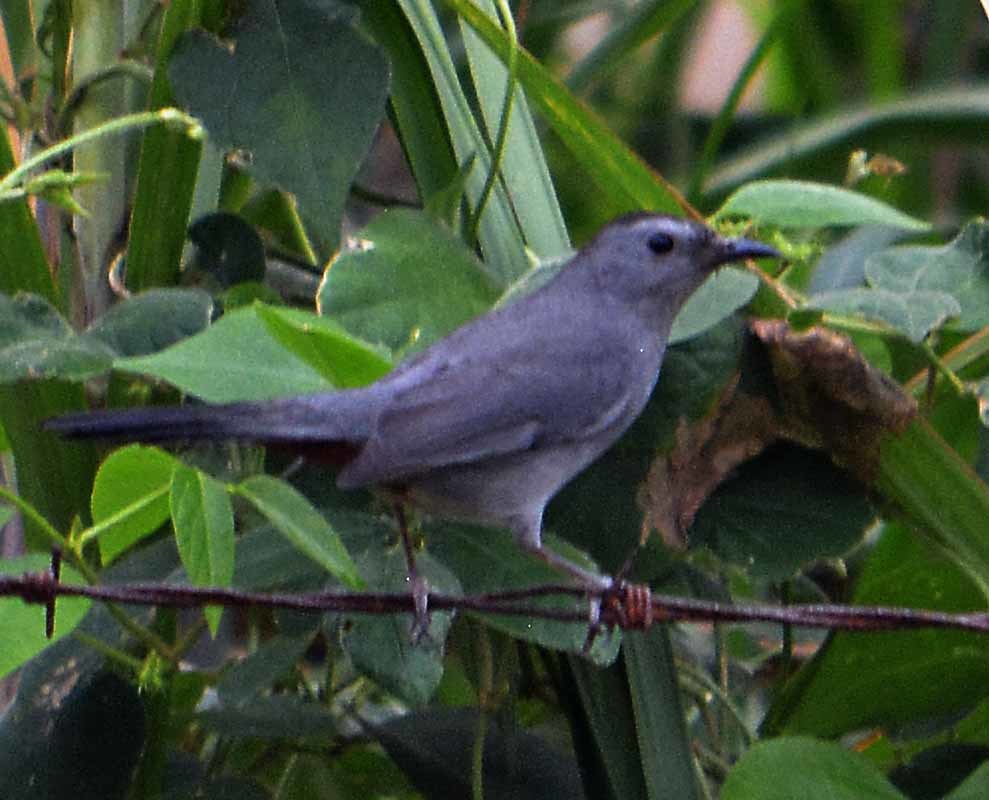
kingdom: Animalia
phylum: Chordata
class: Aves
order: Passeriformes
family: Mimidae
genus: Dumetella
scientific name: Dumetella carolinensis
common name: Gray catbird
